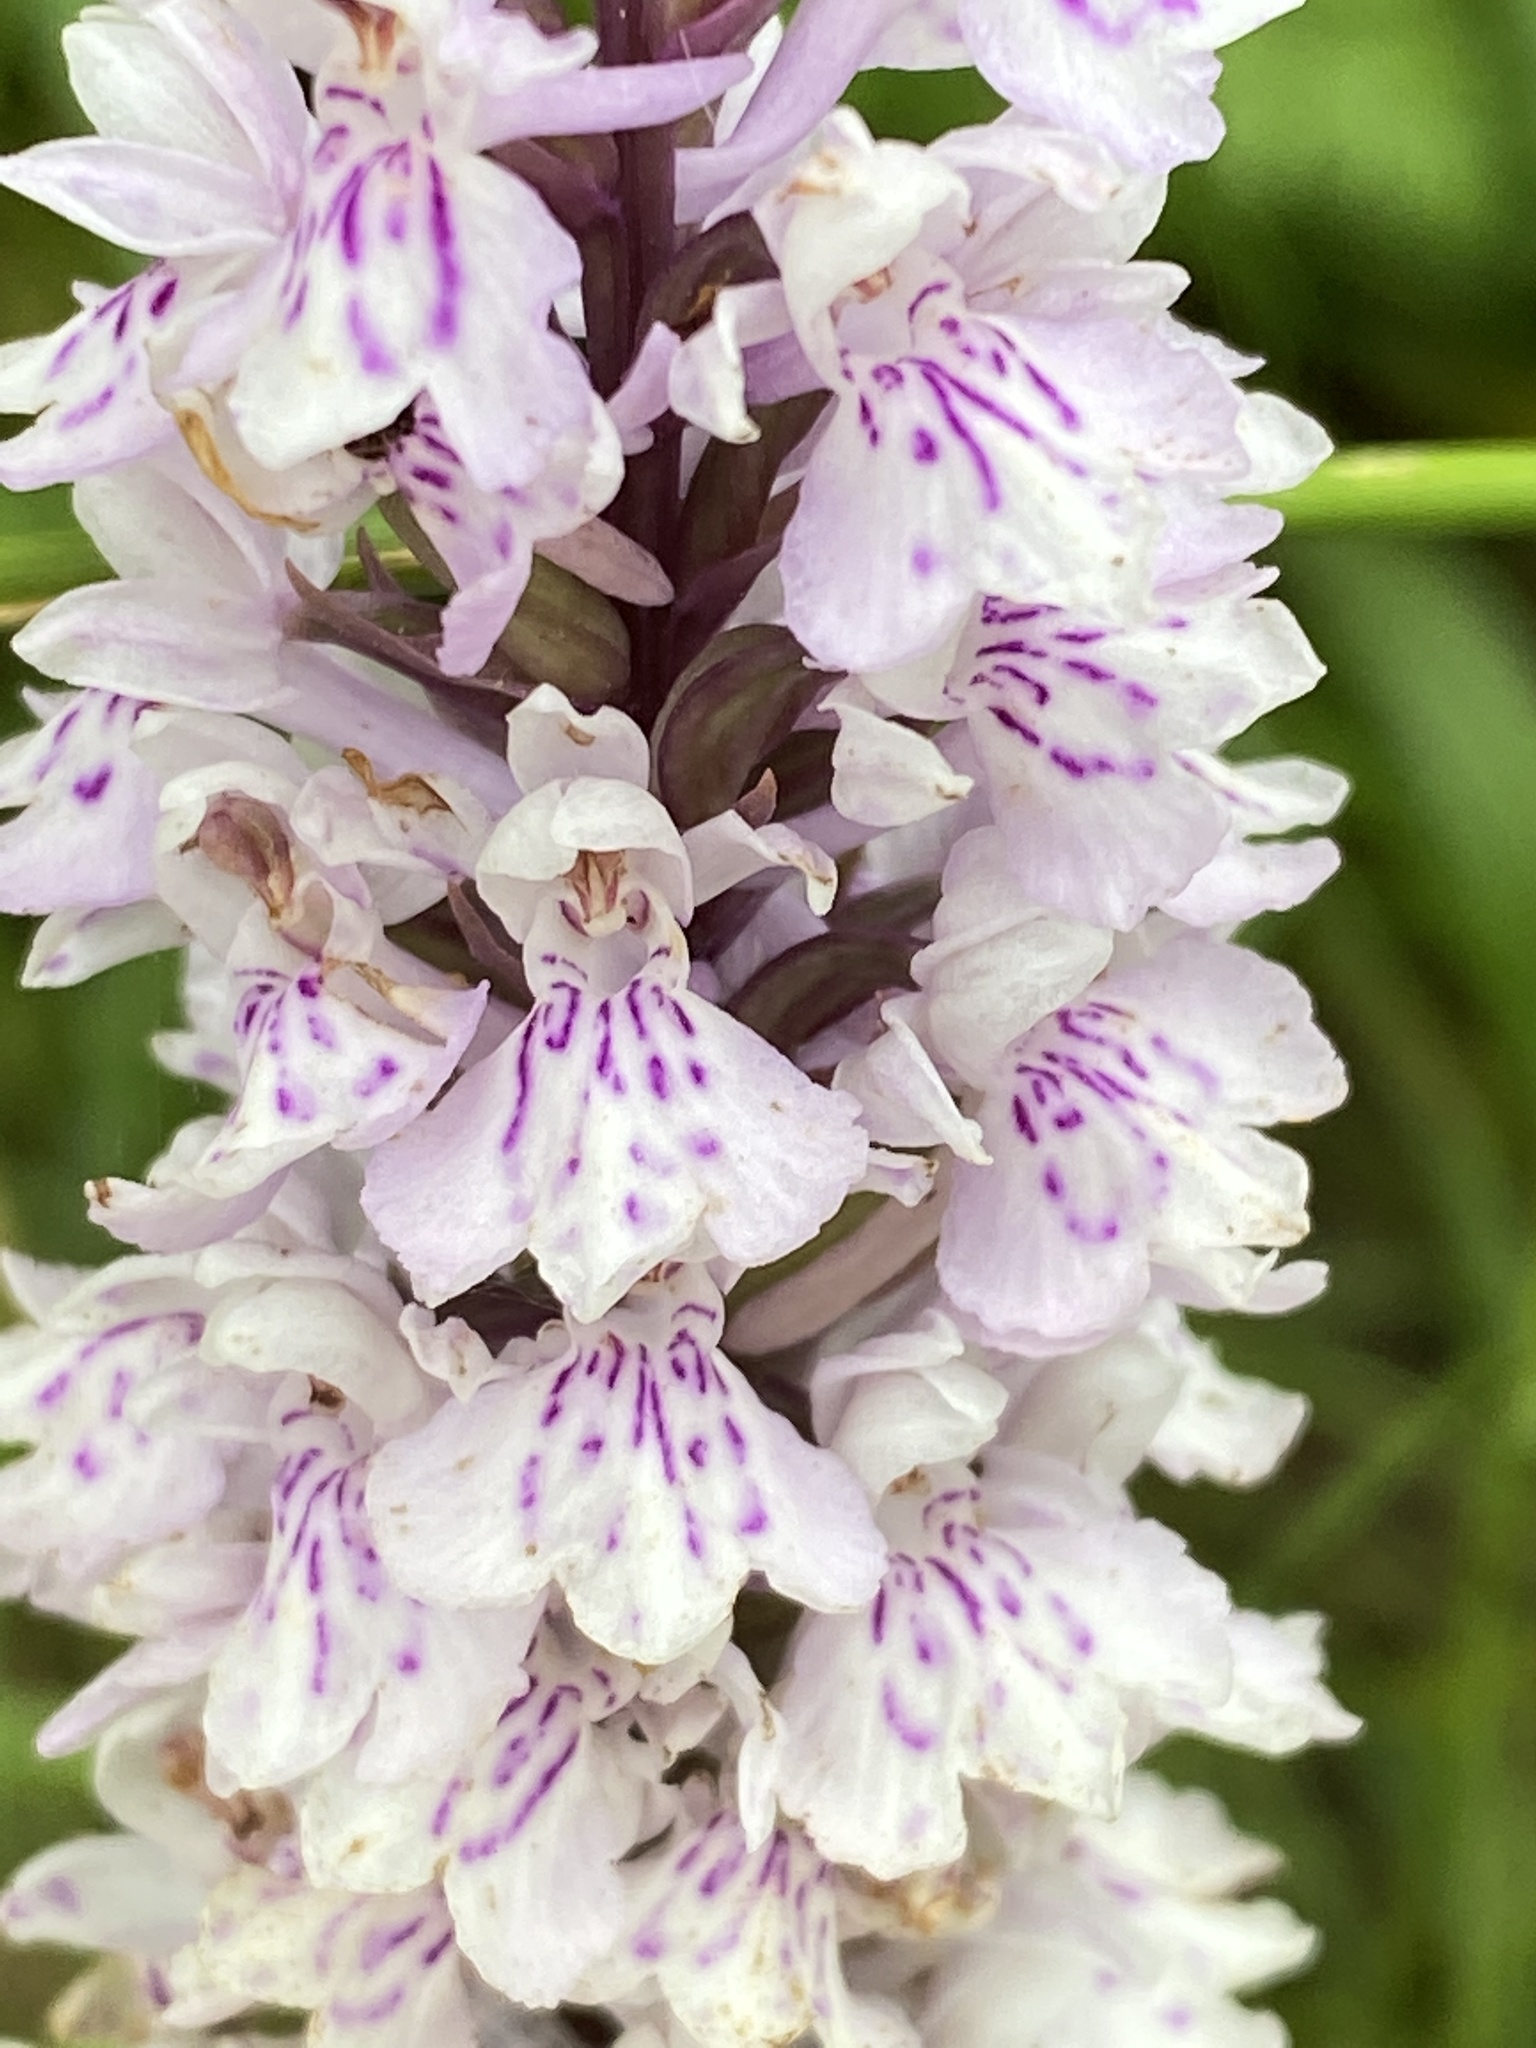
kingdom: Plantae
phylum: Tracheophyta
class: Liliopsida
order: Asparagales
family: Orchidaceae
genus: Dactylorhiza
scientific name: Dactylorhiza maculata
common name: Heath spotted-orchid
